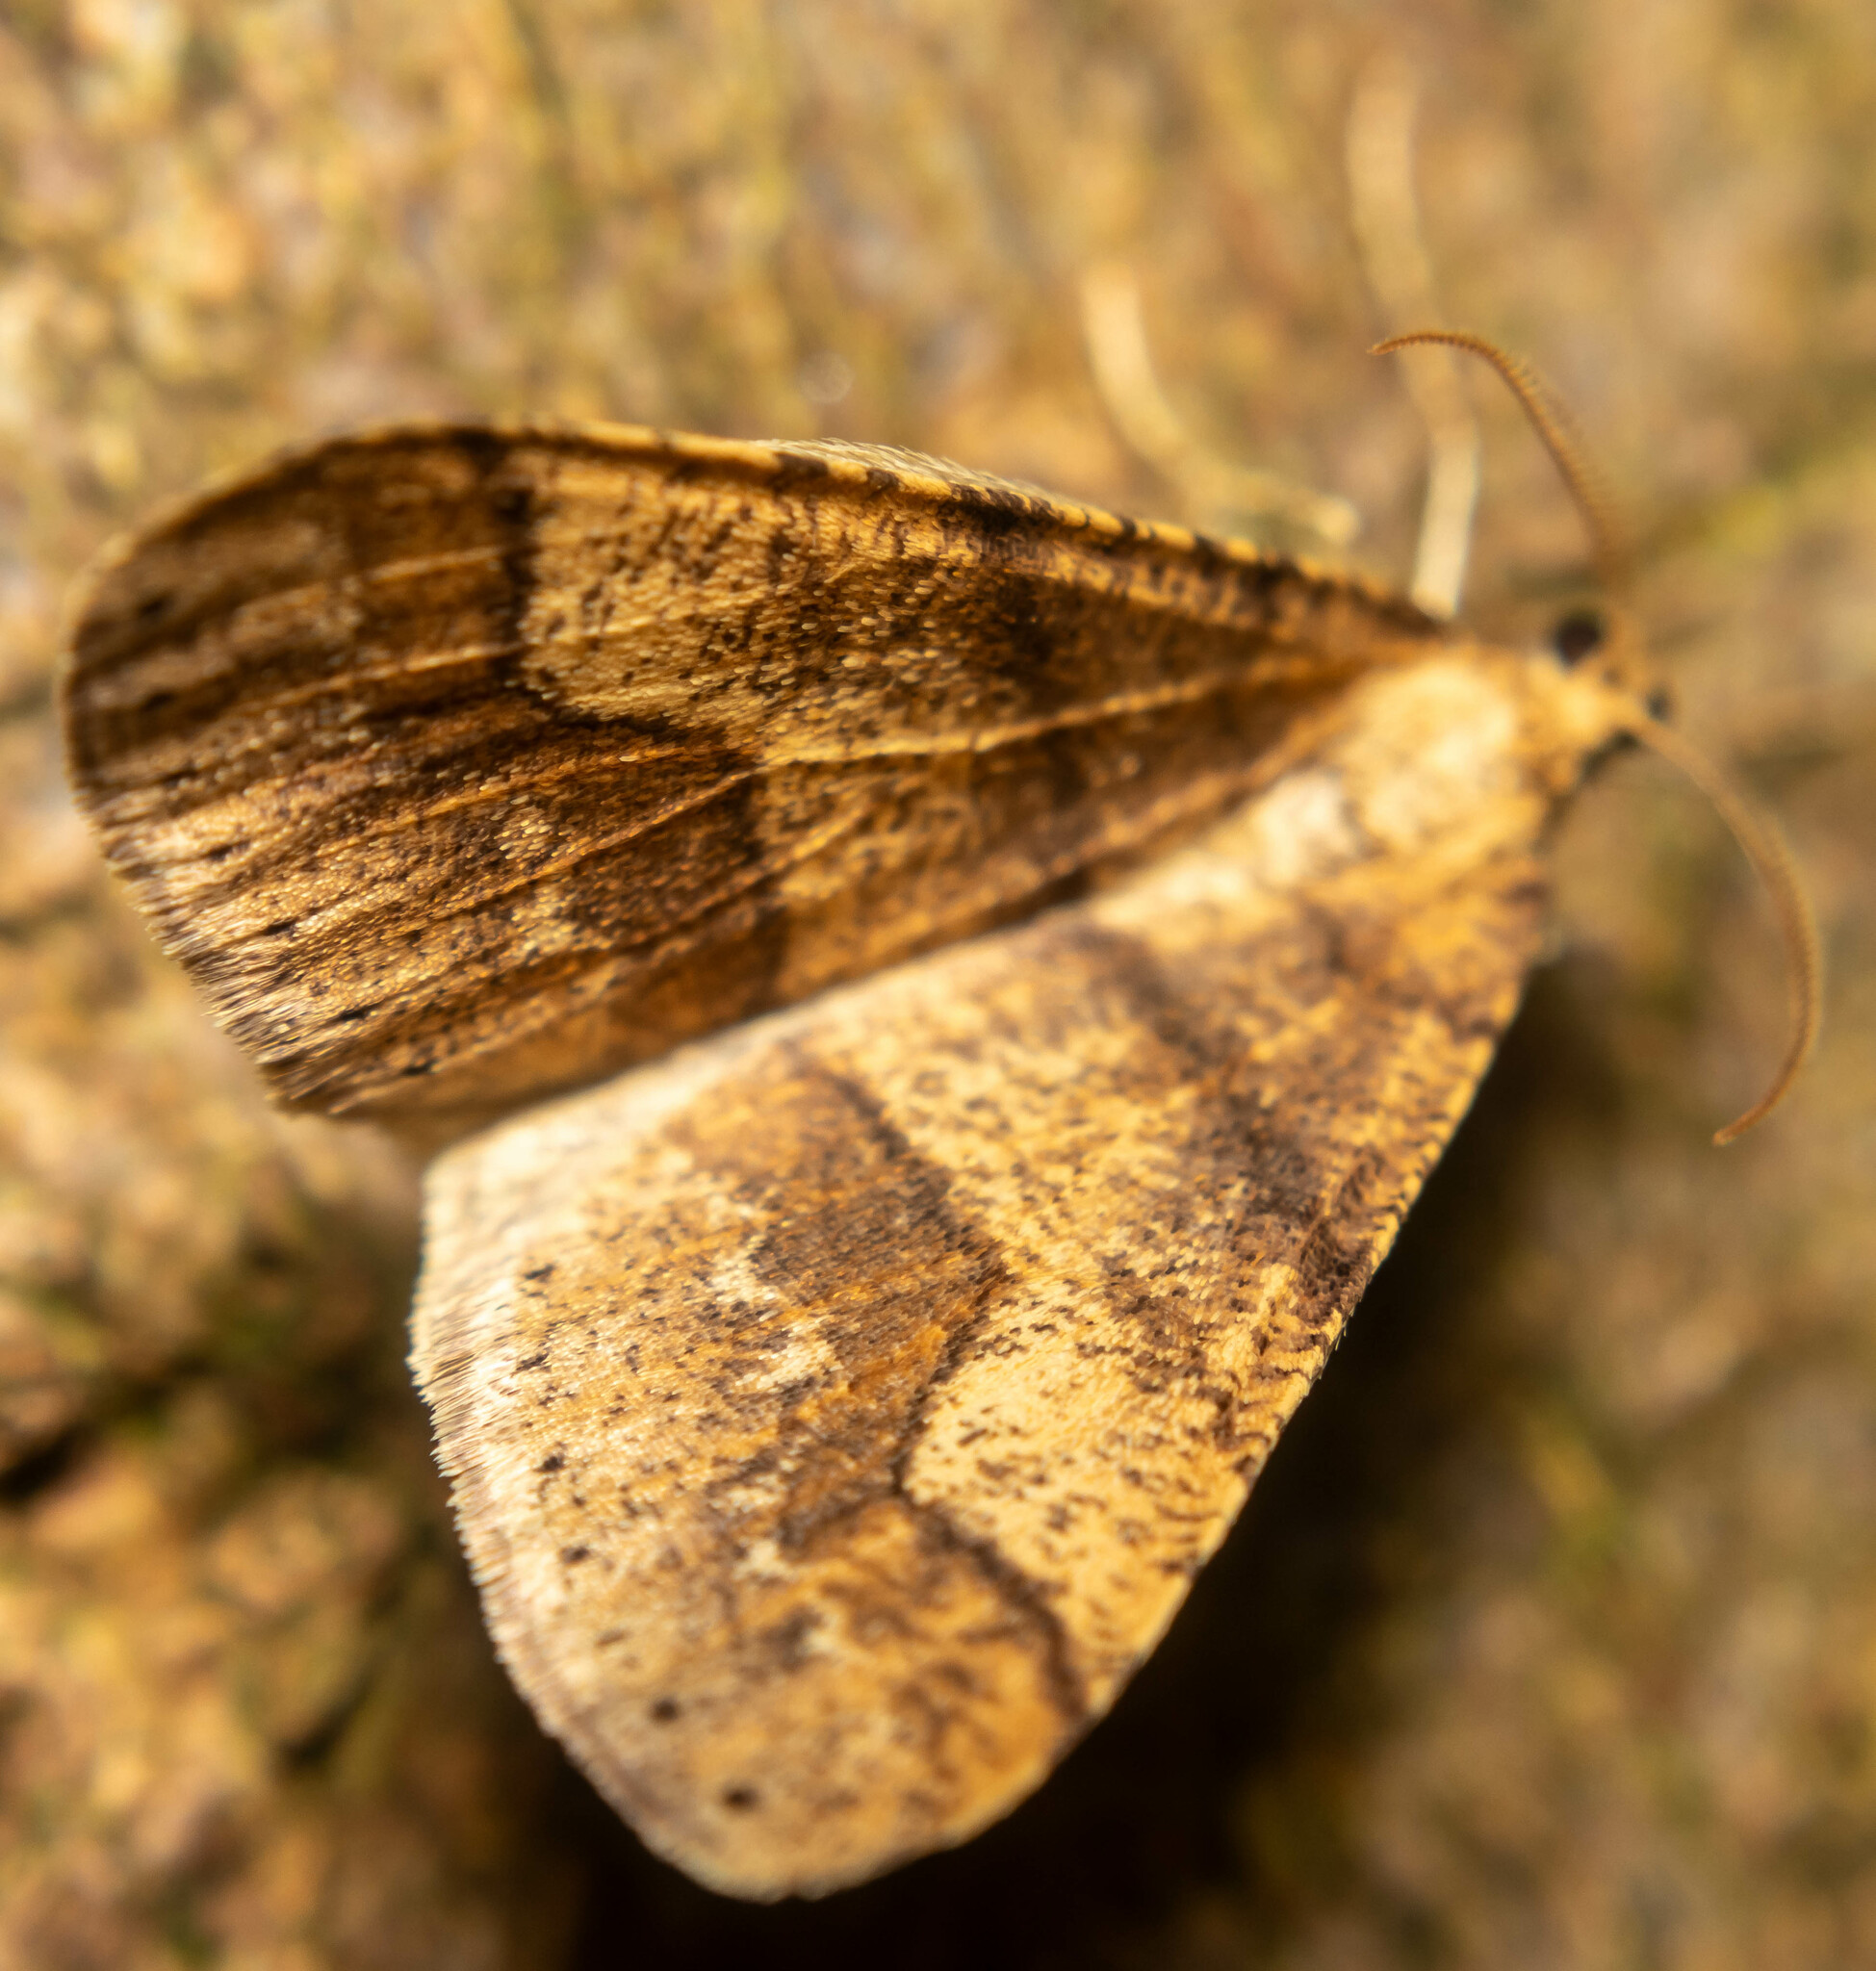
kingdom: Animalia
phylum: Arthropoda
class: Insecta
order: Lepidoptera
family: Geometridae
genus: Agriopis
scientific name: Agriopis marginaria
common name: Dotted border
